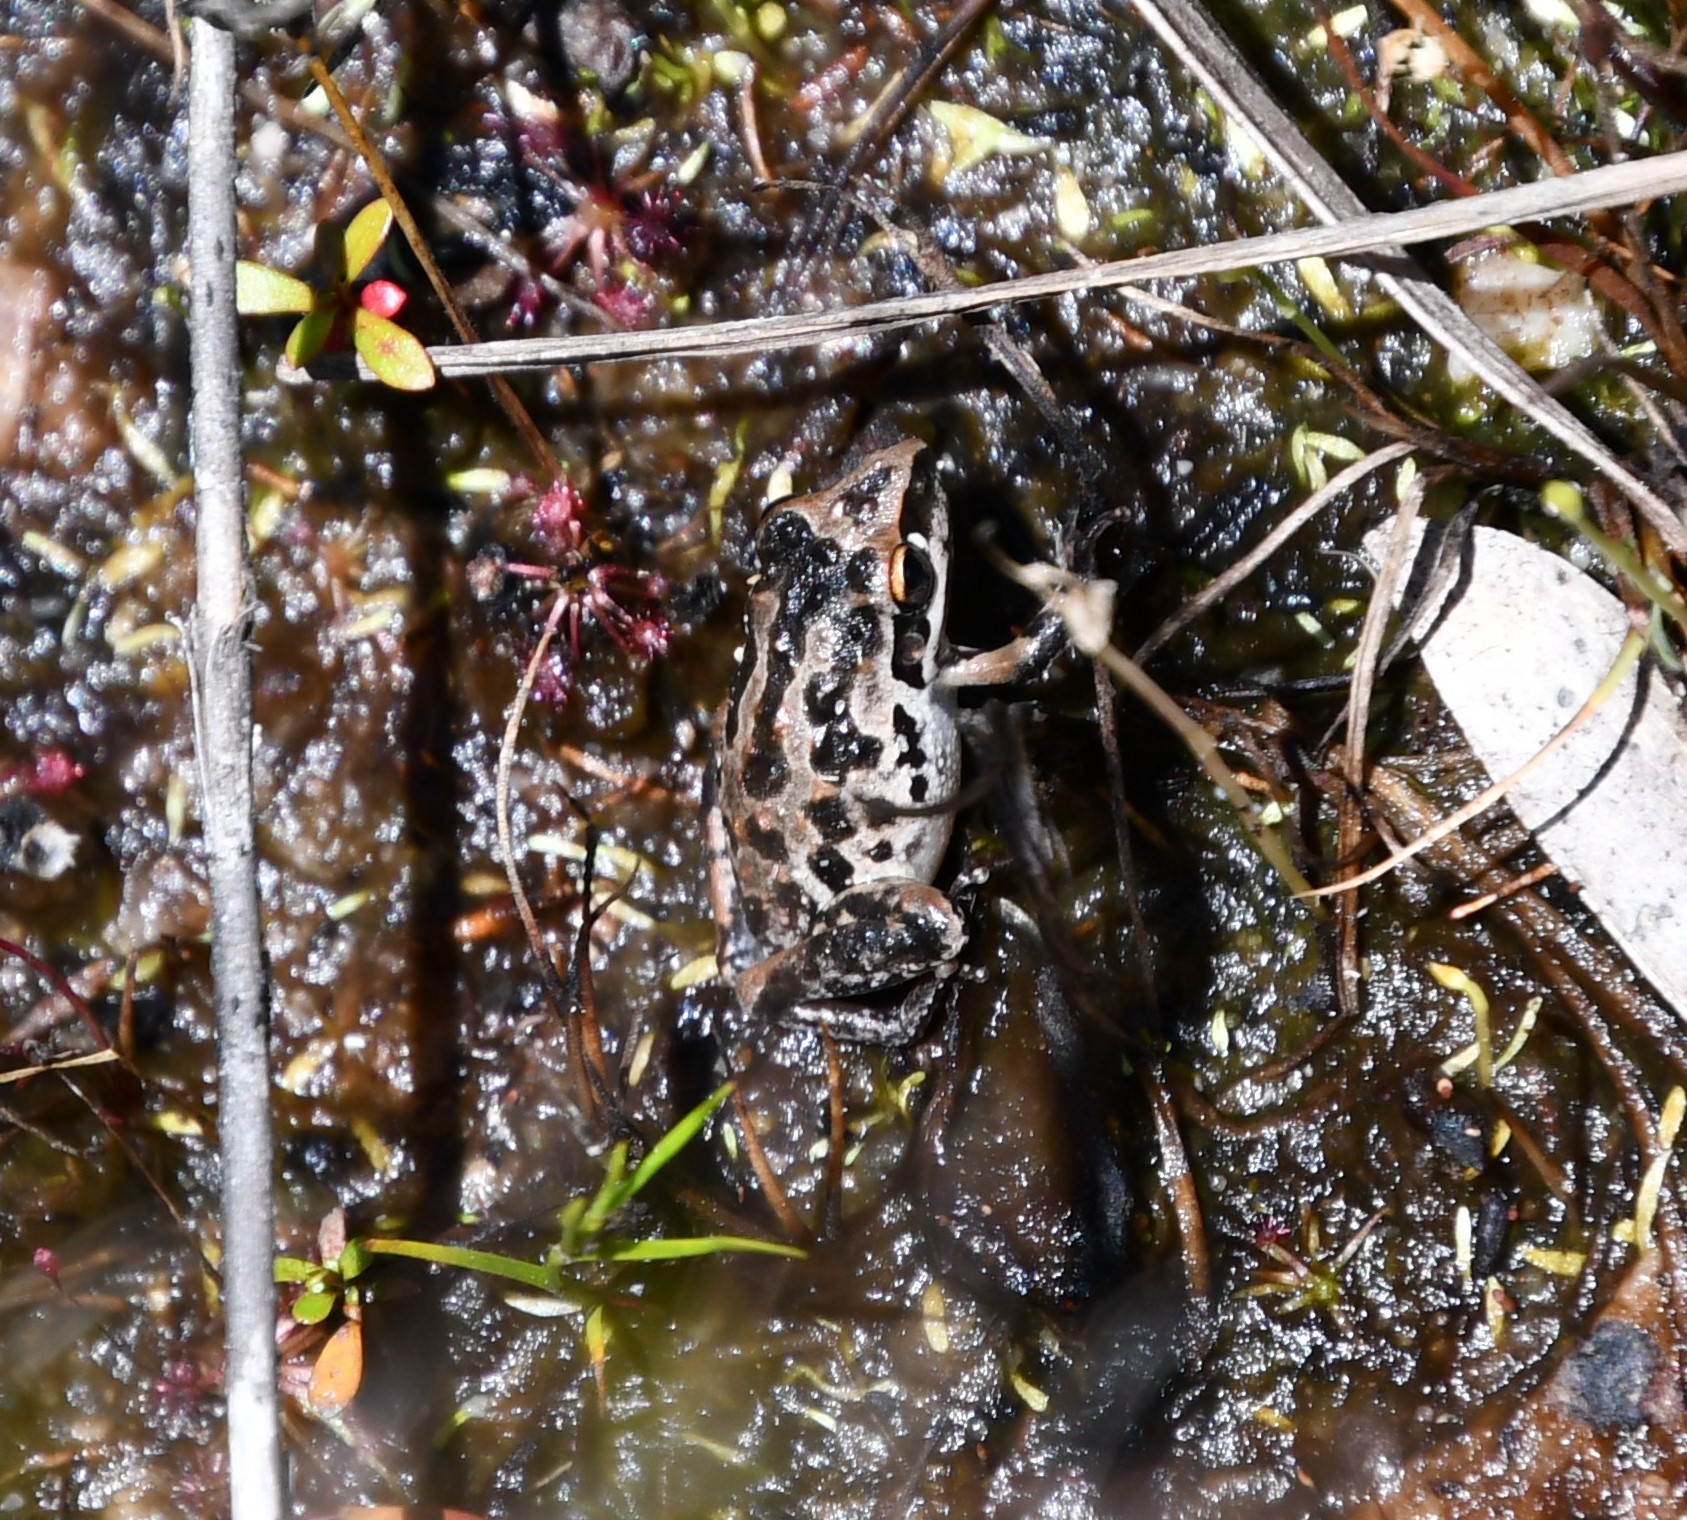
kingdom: Animalia
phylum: Chordata
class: Amphibia
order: Anura
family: Pelodryadidae
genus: Litoria
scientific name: Litoria freycineti
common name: Freycinet’s frog
